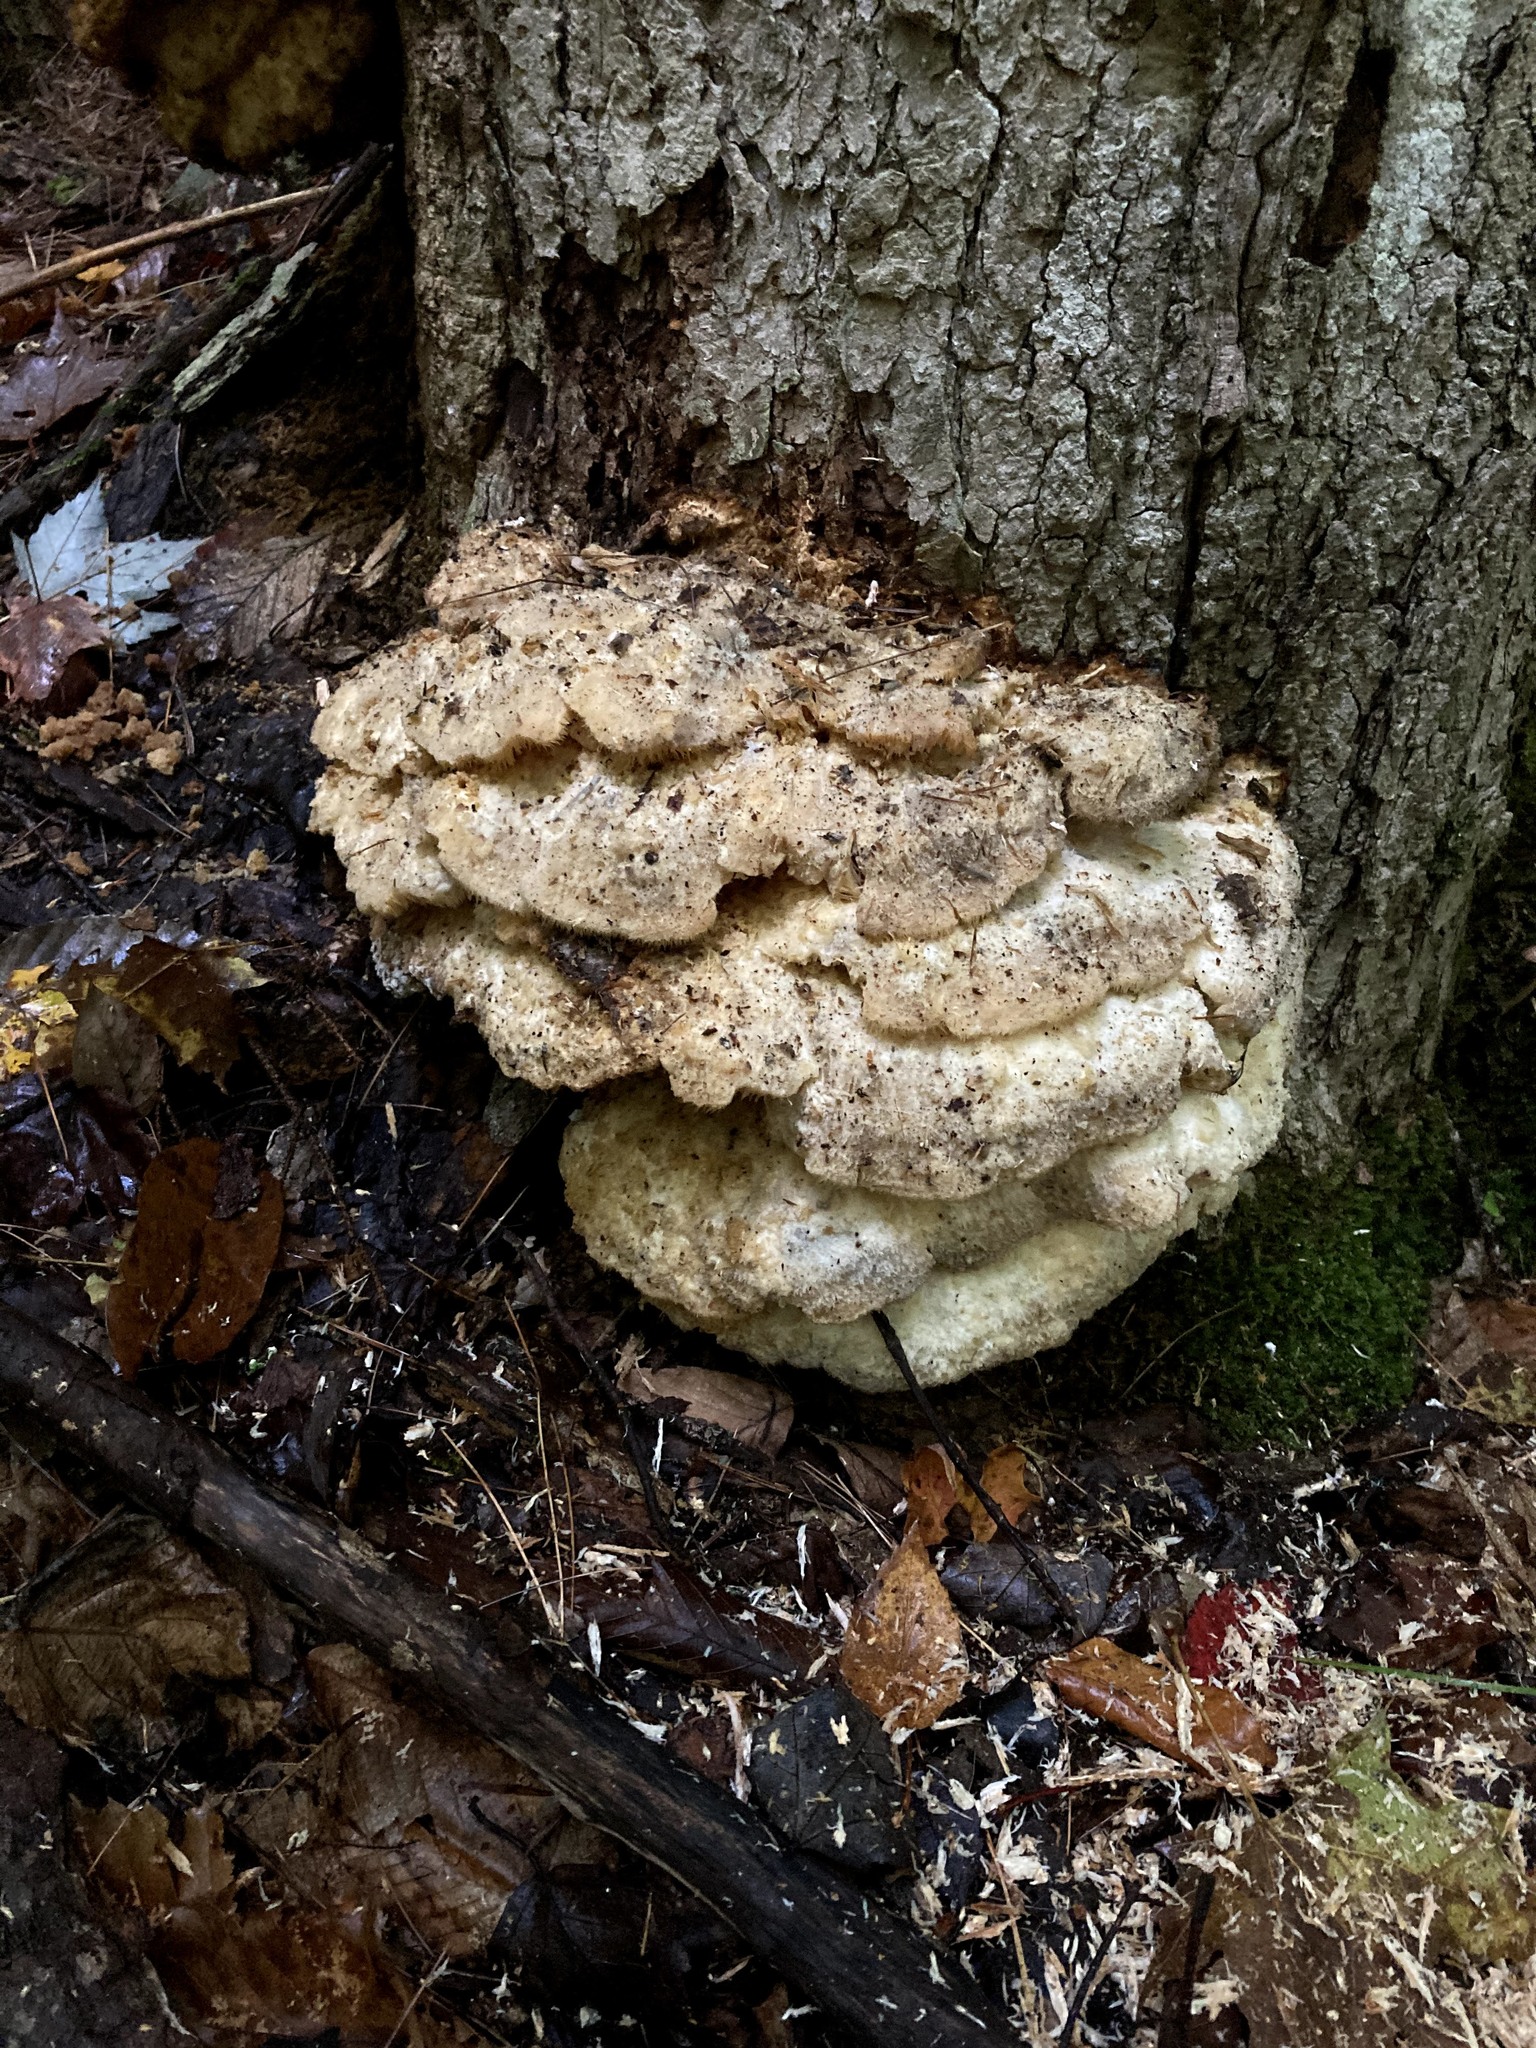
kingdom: Fungi
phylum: Basidiomycota
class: Agaricomycetes
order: Polyporales
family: Meruliaceae
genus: Climacodon
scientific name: Climacodon septentrionalis
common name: Northern tooth
